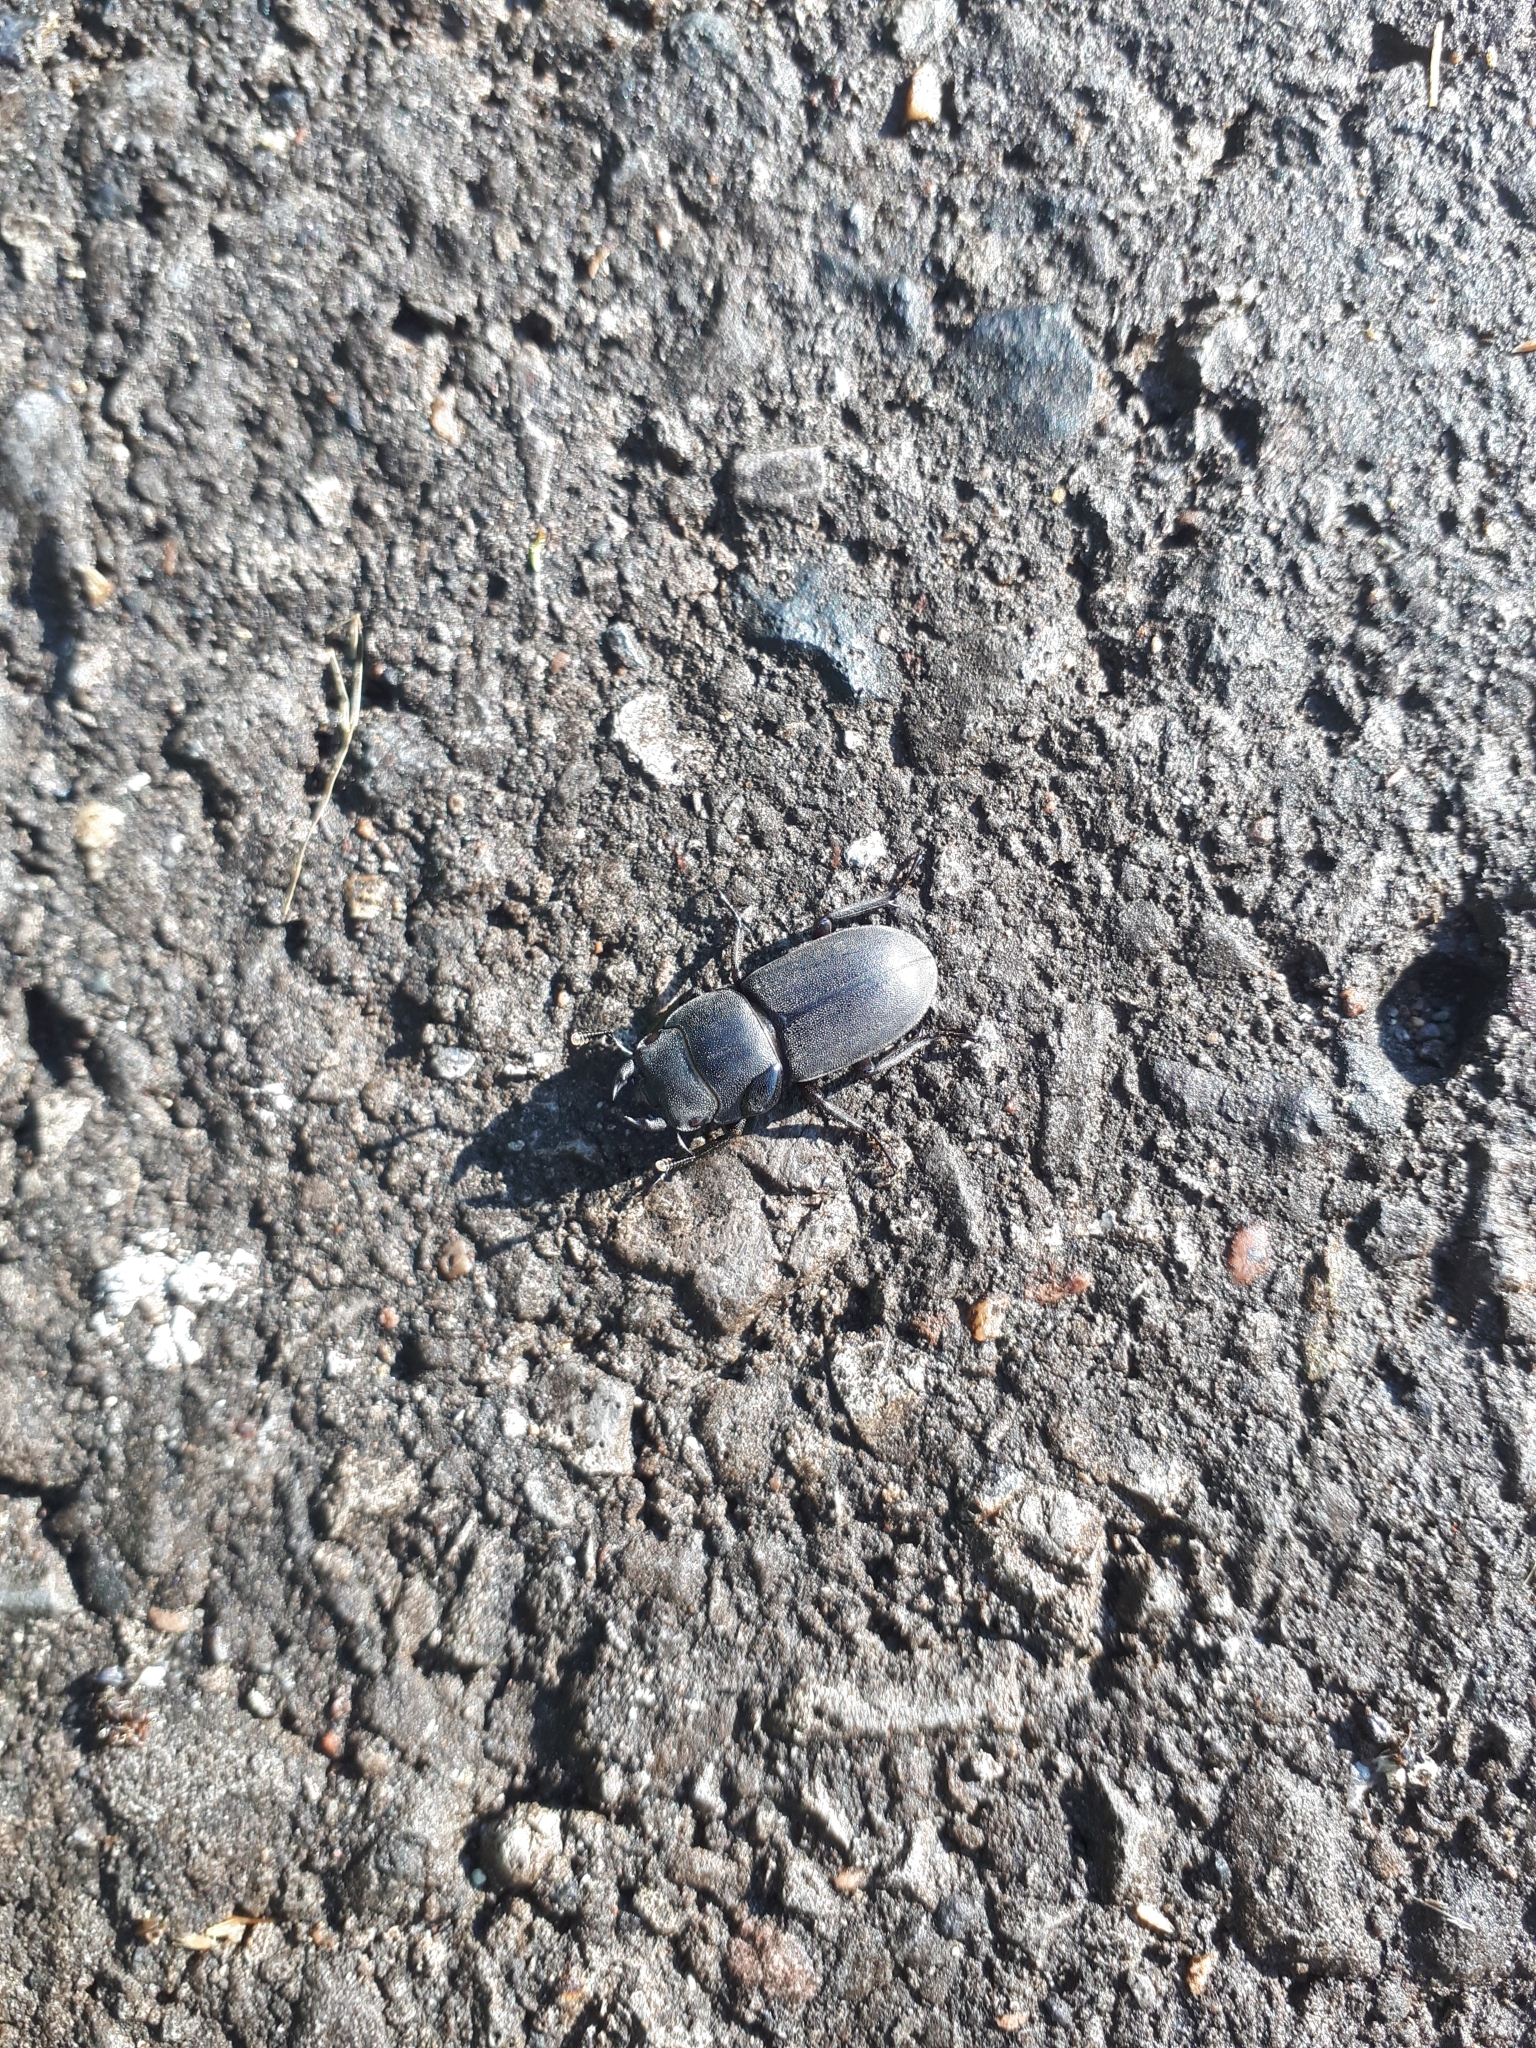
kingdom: Animalia
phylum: Arthropoda
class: Insecta
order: Coleoptera
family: Lucanidae
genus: Dorcus
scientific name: Dorcus parallelipipedus
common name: Lesser stag beetle
